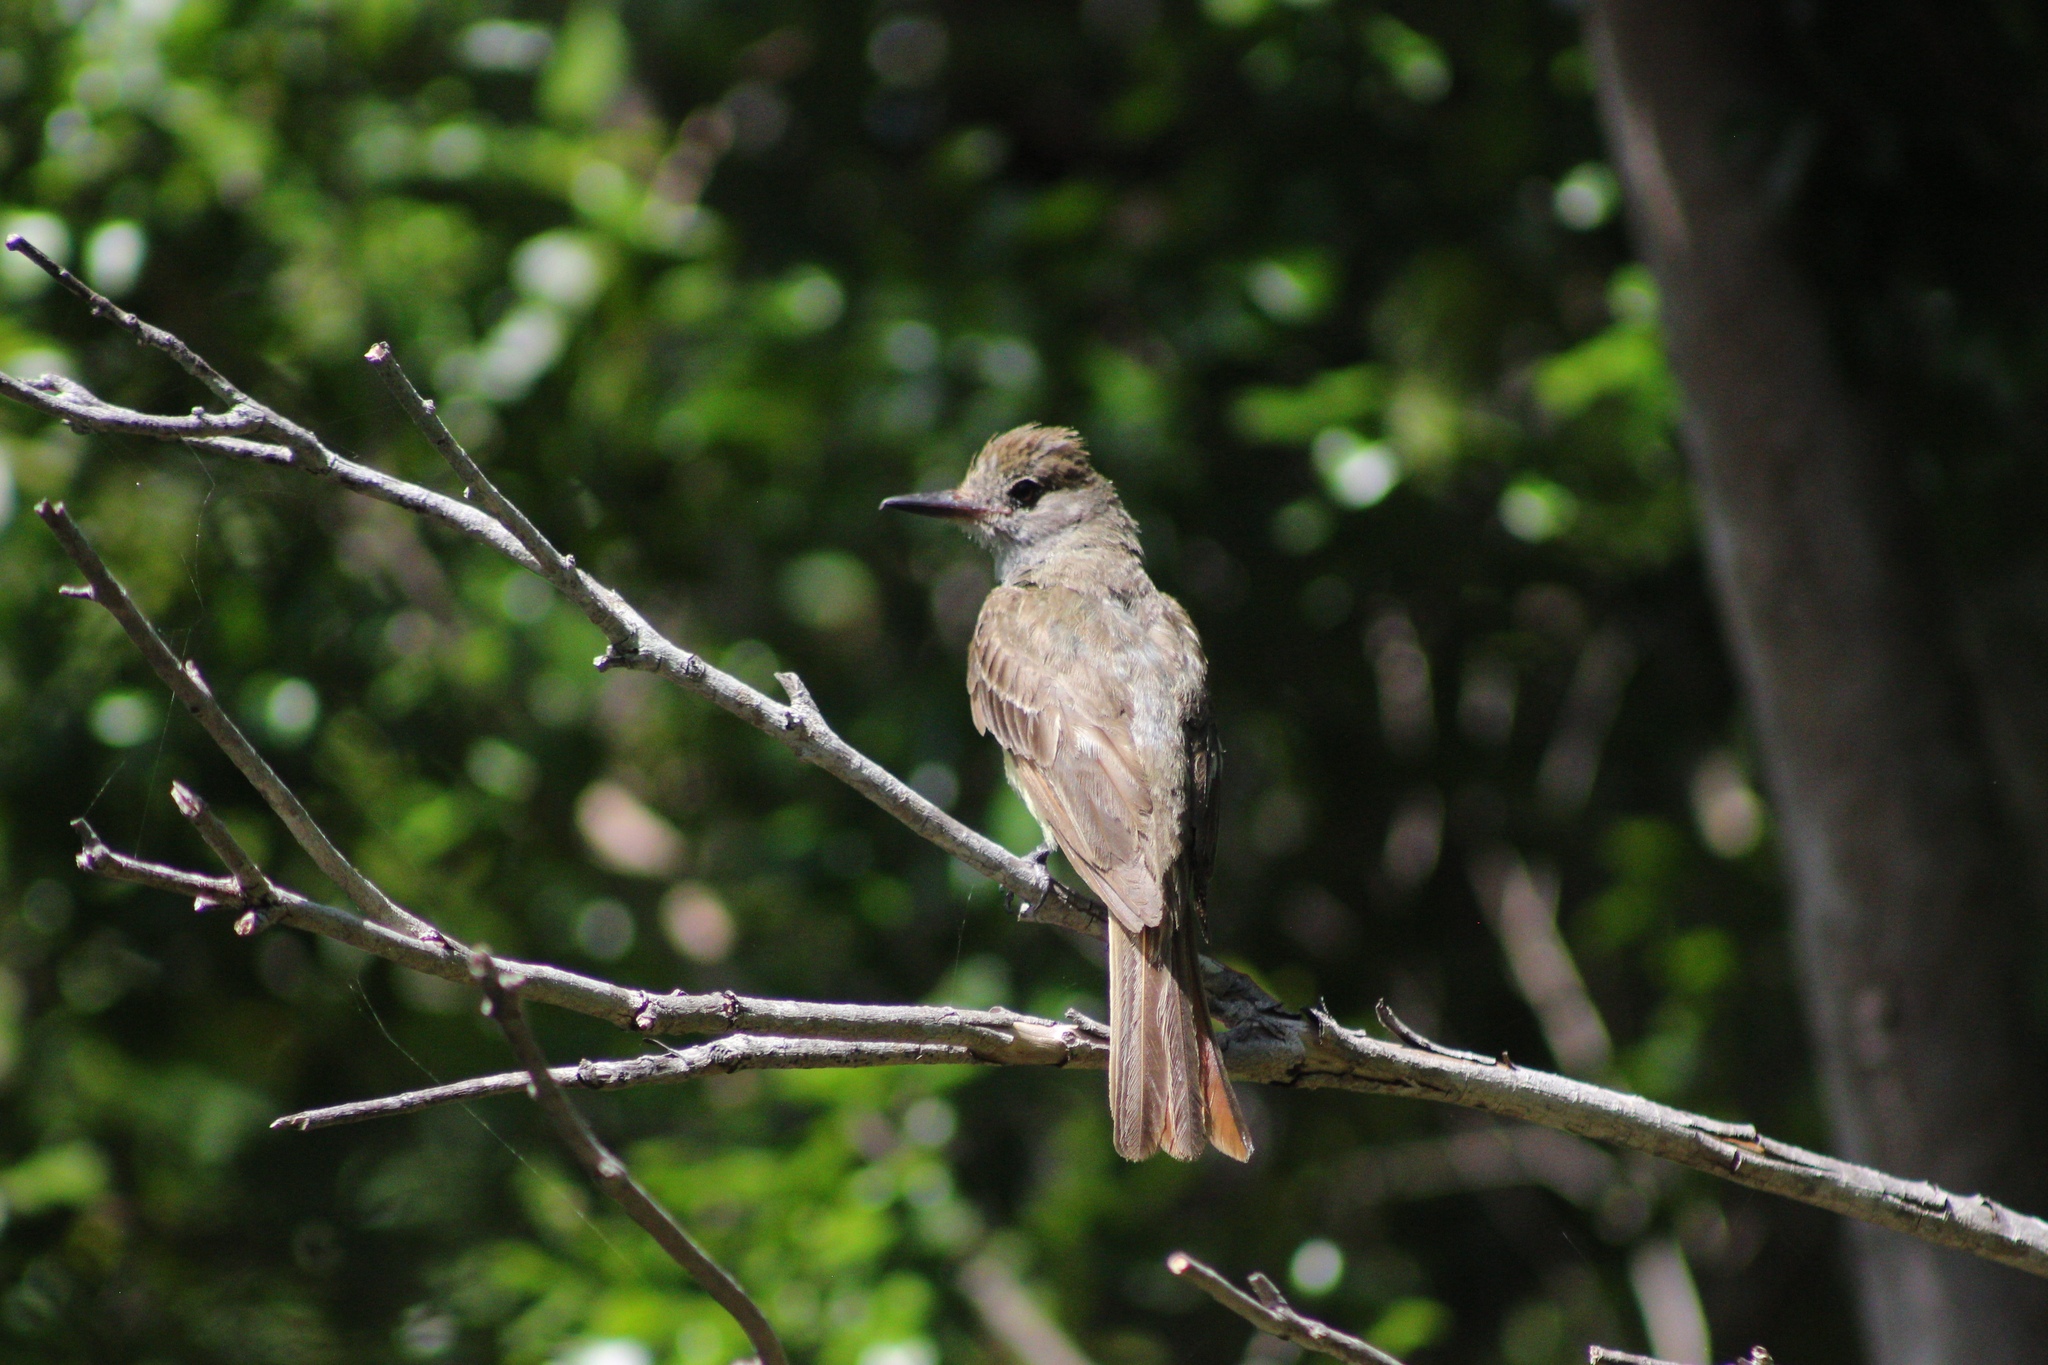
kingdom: Animalia
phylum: Chordata
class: Aves
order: Passeriformes
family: Tyrannidae
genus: Myiarchus
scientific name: Myiarchus crinitus
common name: Great crested flycatcher
